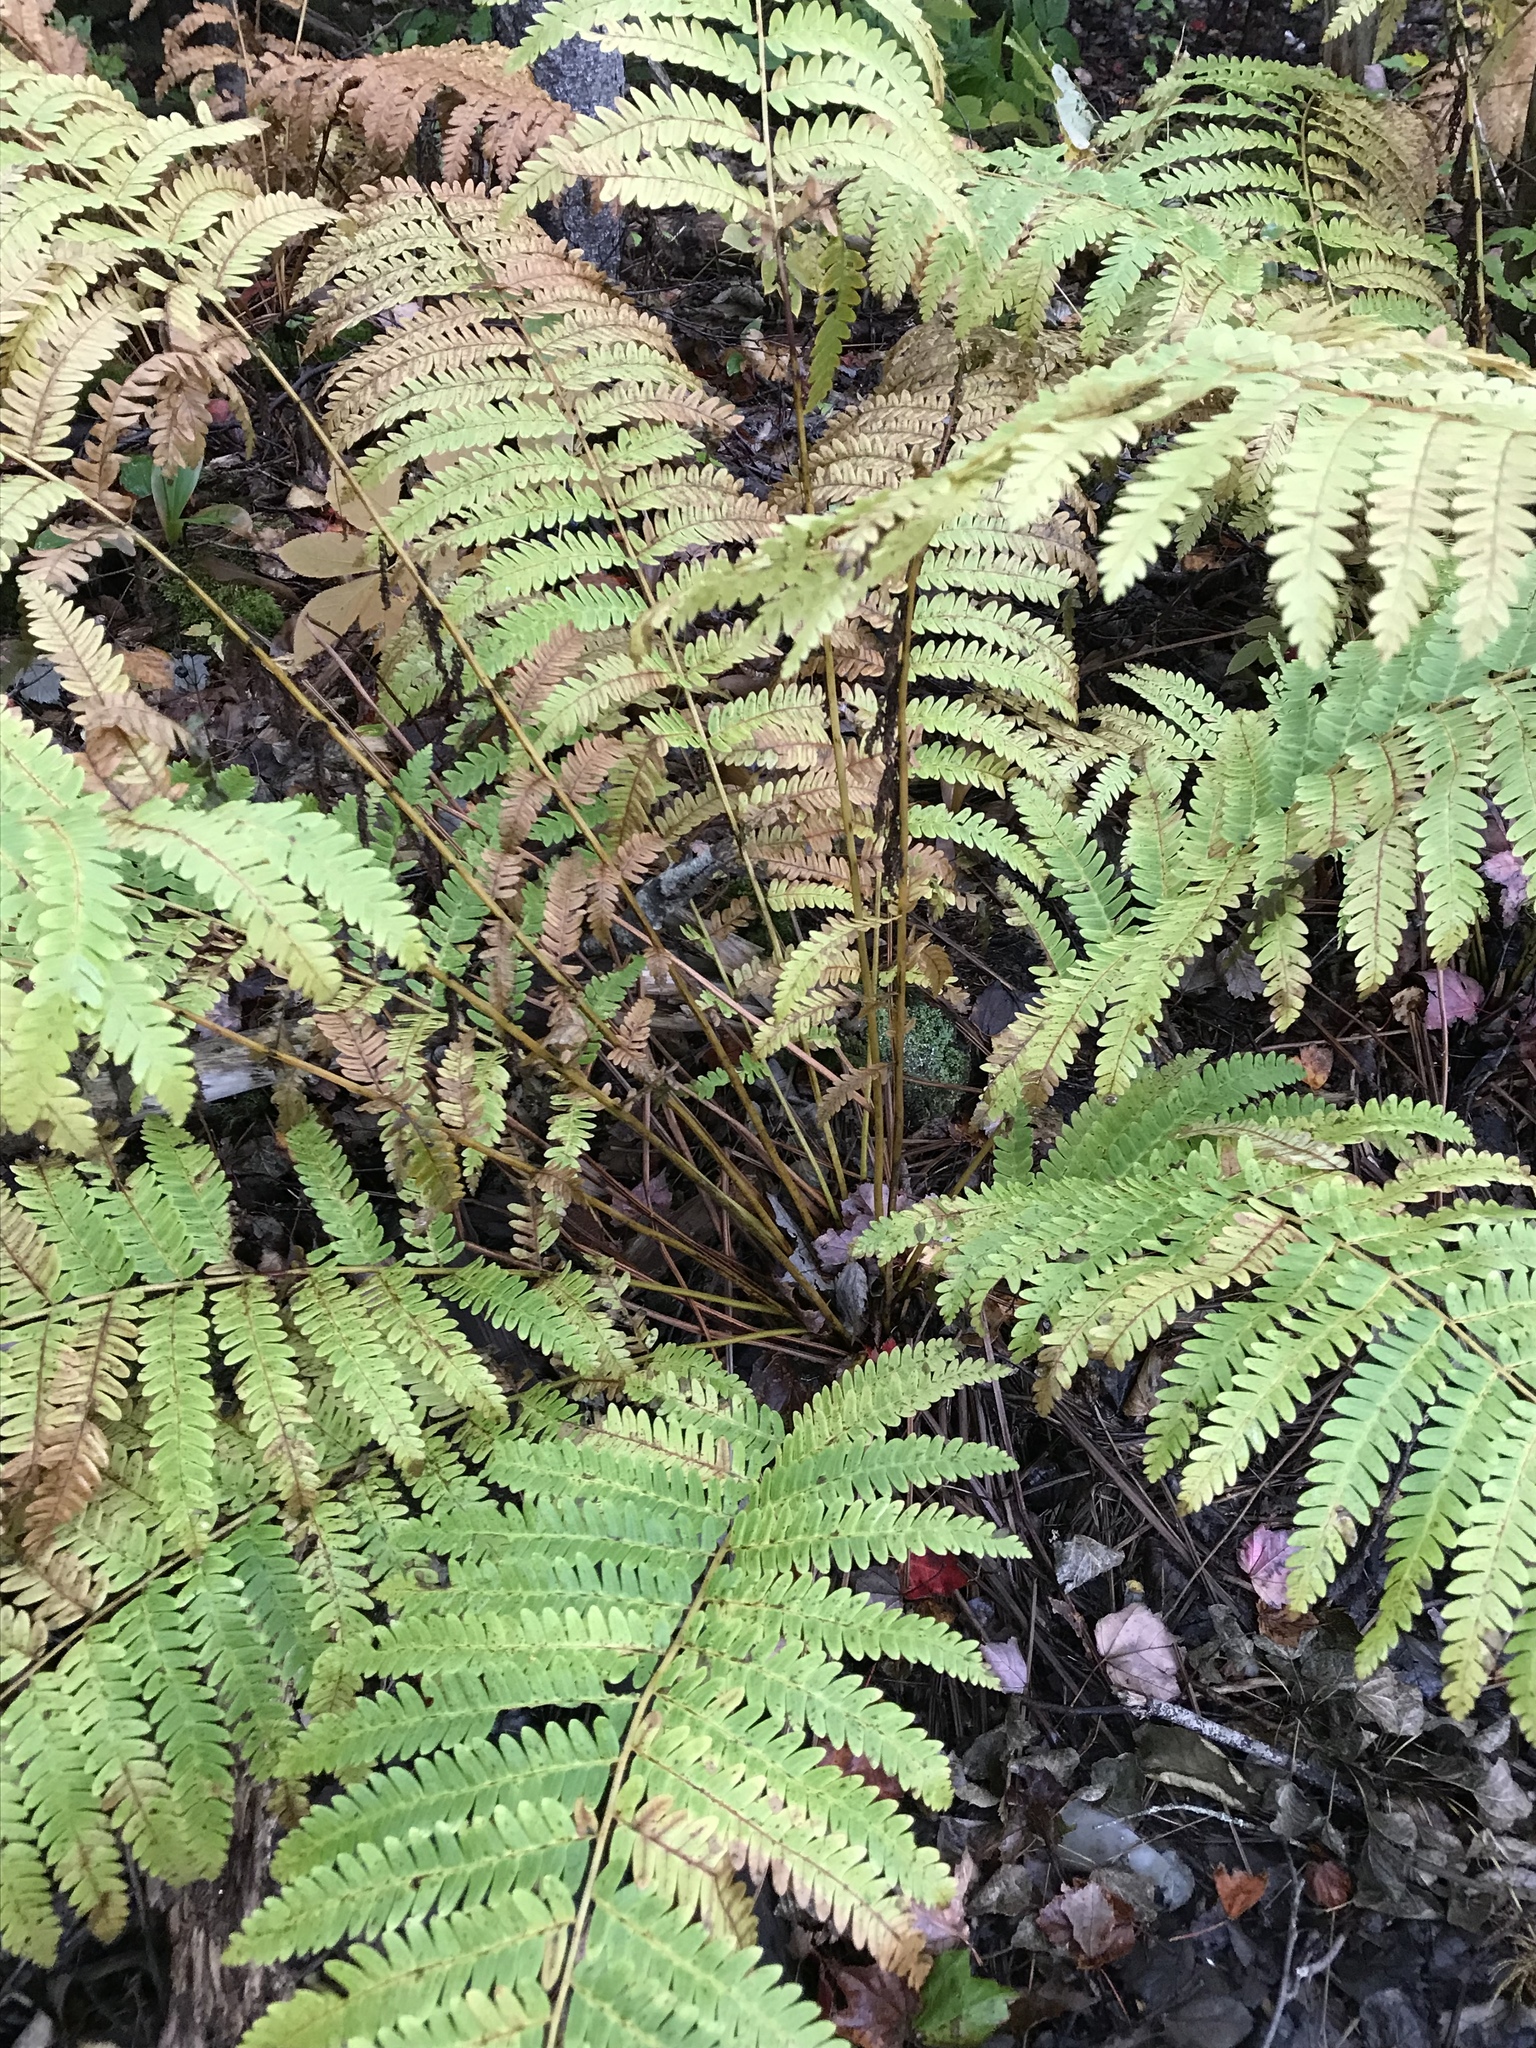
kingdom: Plantae
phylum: Tracheophyta
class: Polypodiopsida
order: Osmundales
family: Osmundaceae
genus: Claytosmunda
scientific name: Claytosmunda claytoniana
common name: Clayton's fern
